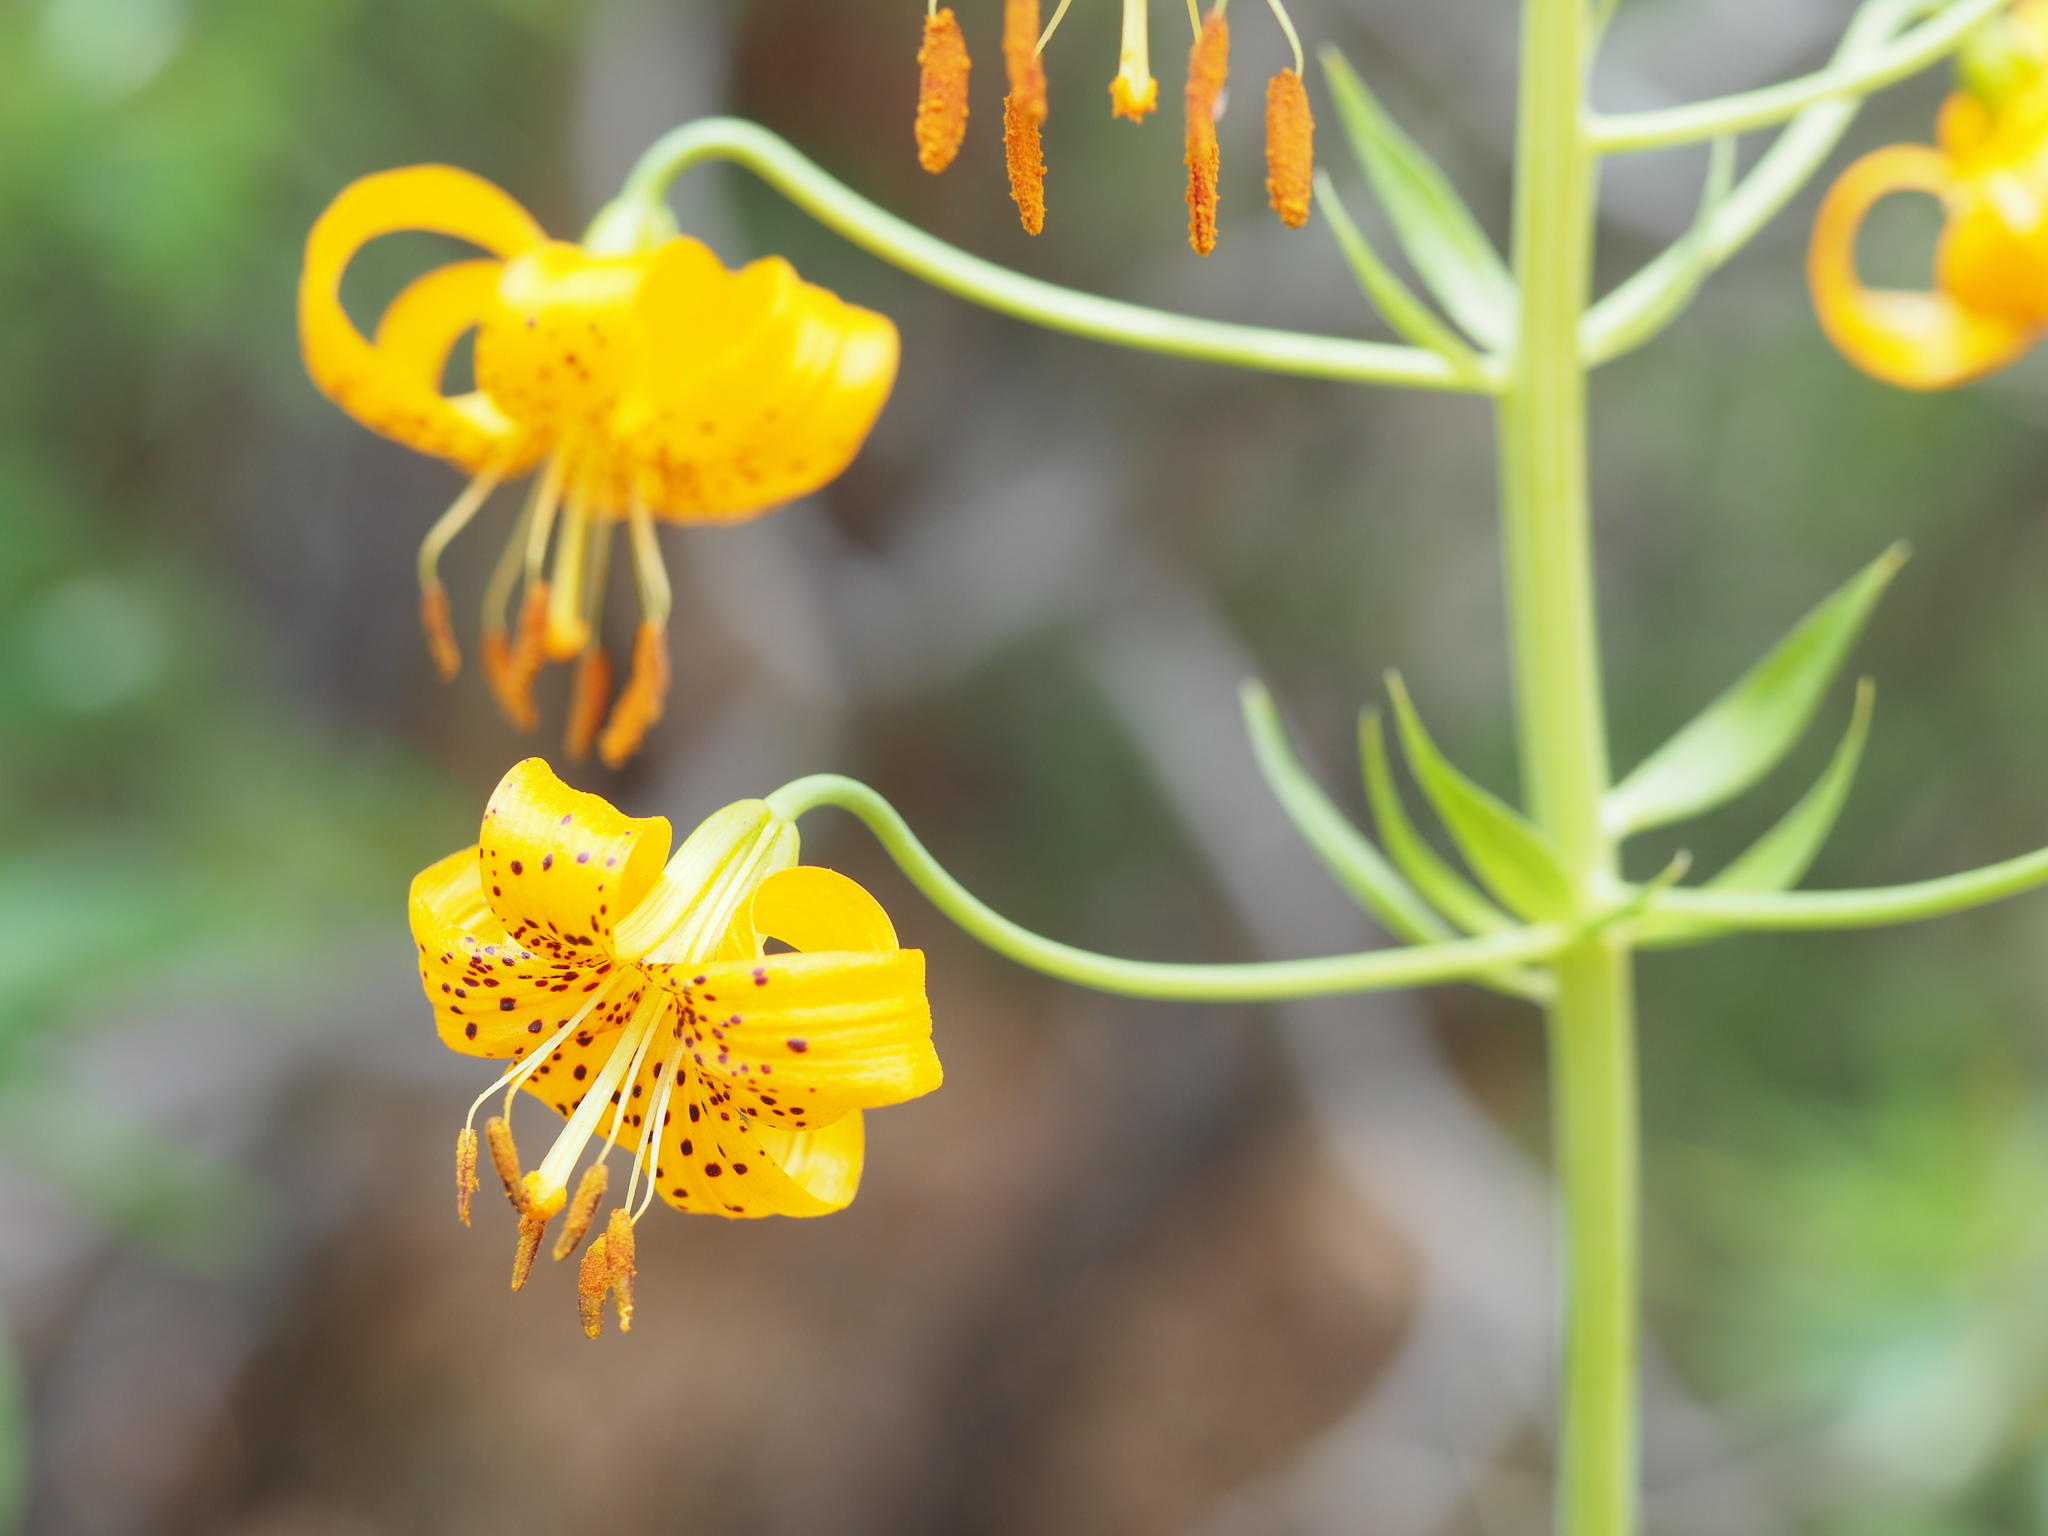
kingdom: Plantae
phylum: Tracheophyta
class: Liliopsida
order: Liliales
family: Liliaceae
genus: Lilium
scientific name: Lilium kelleyanum
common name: Kelley's lily
